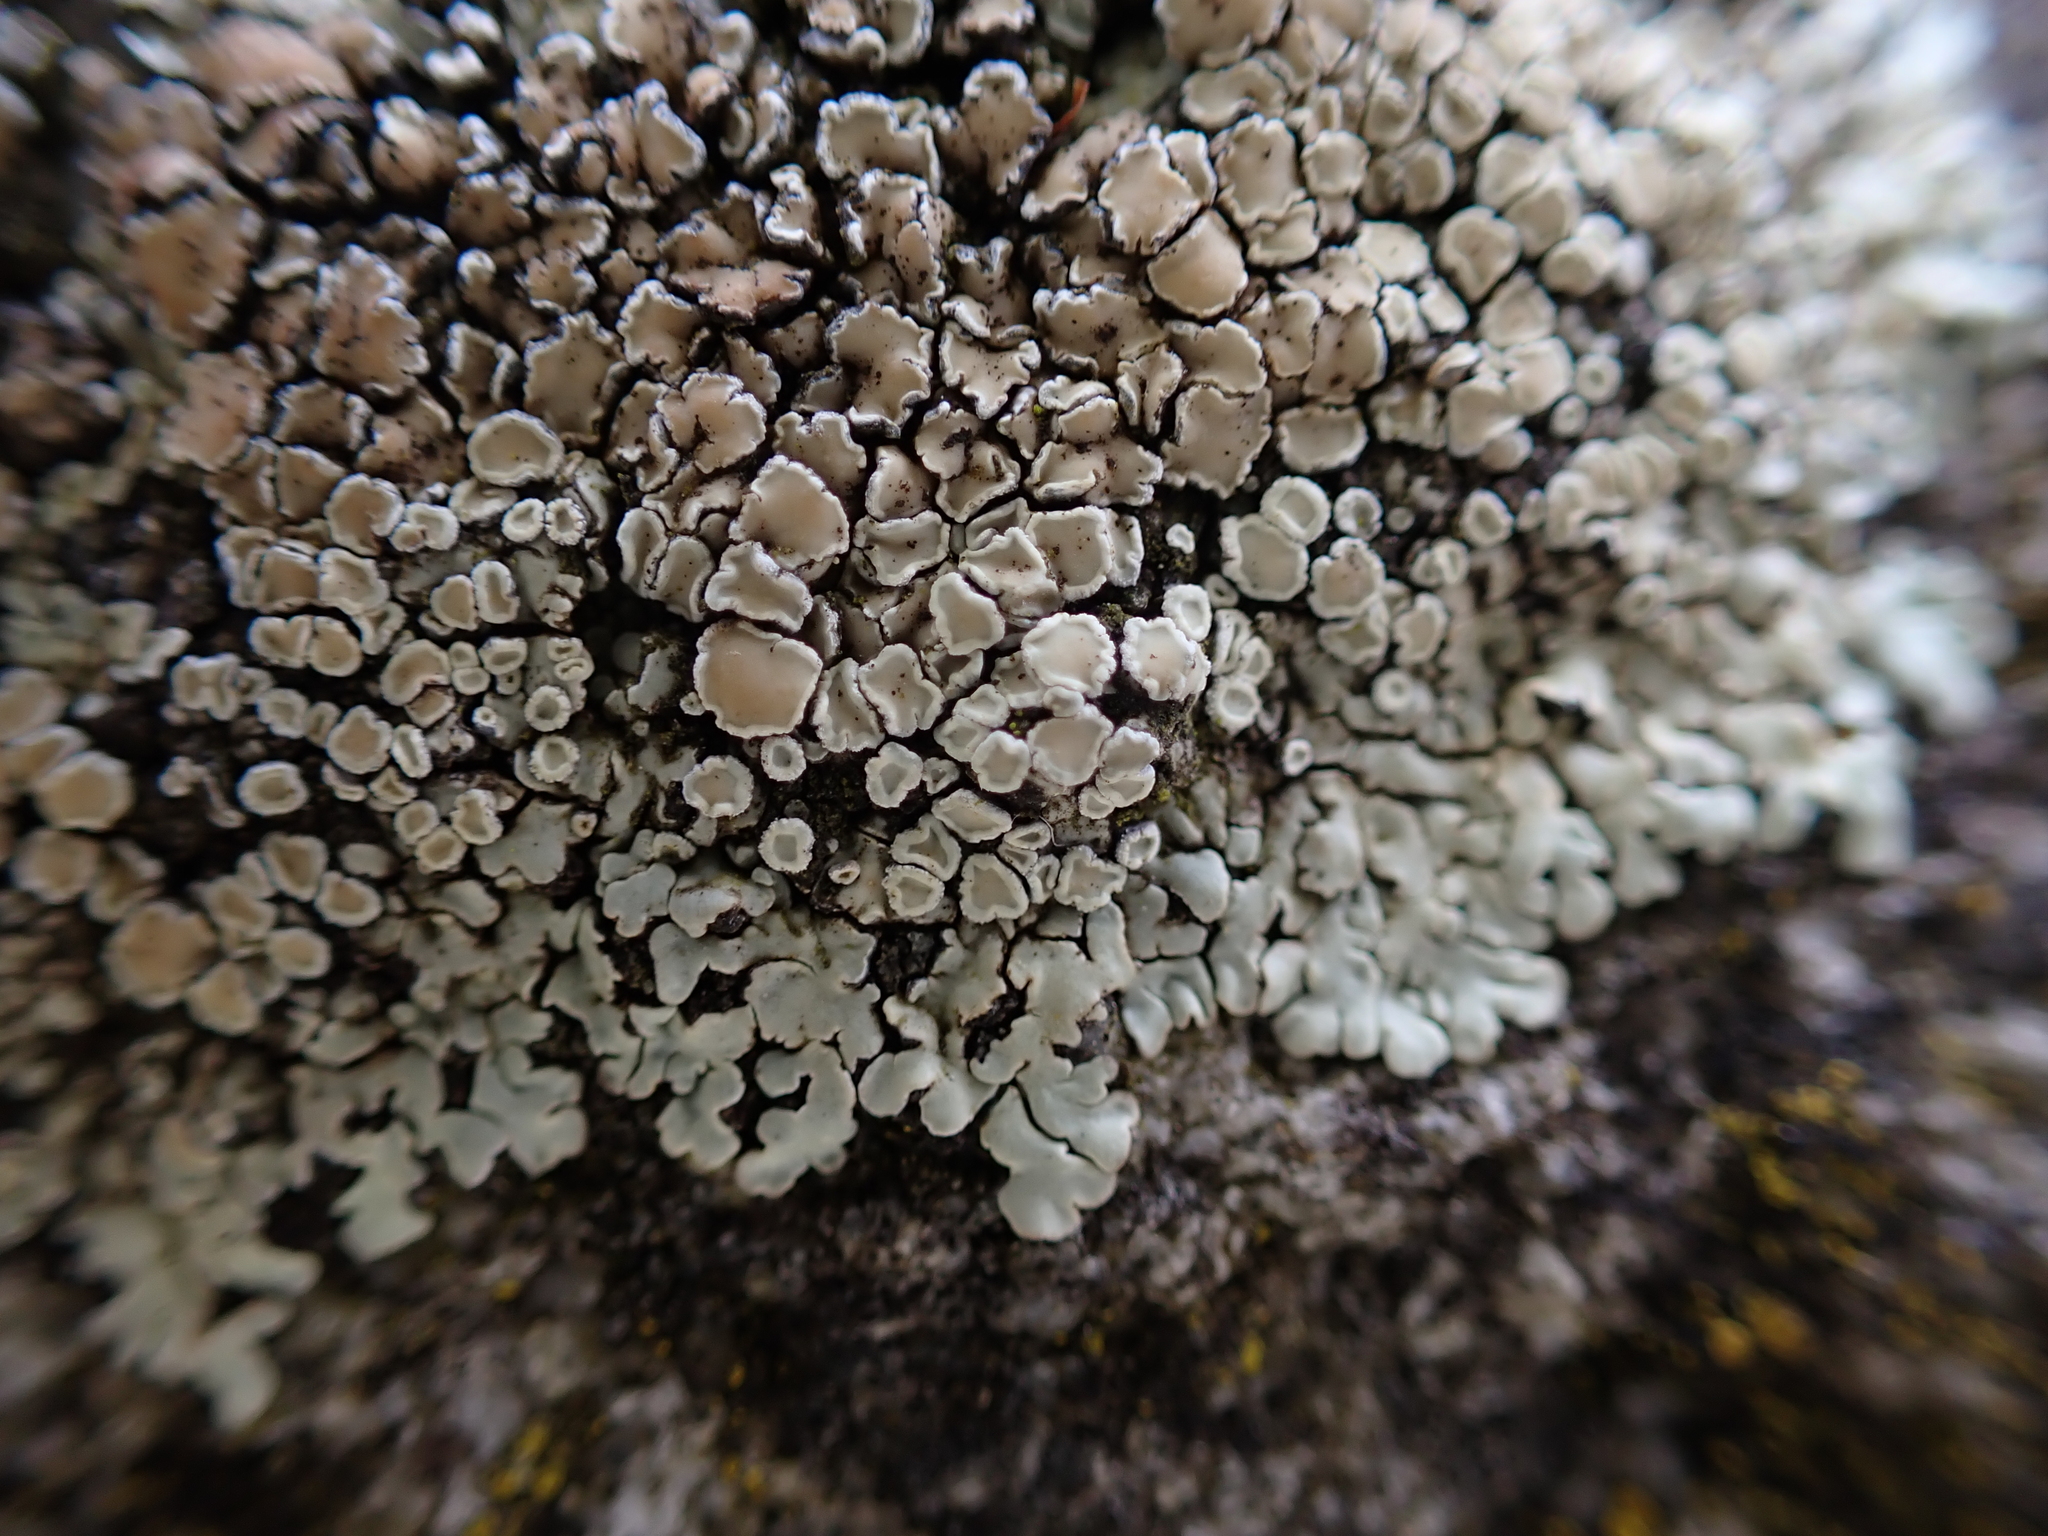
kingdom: Fungi
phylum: Ascomycota
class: Lecanoromycetes
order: Lecanorales
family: Lecanoraceae
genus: Protoparmeliopsis
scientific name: Protoparmeliopsis muralis
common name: Stonewall rim lichen
